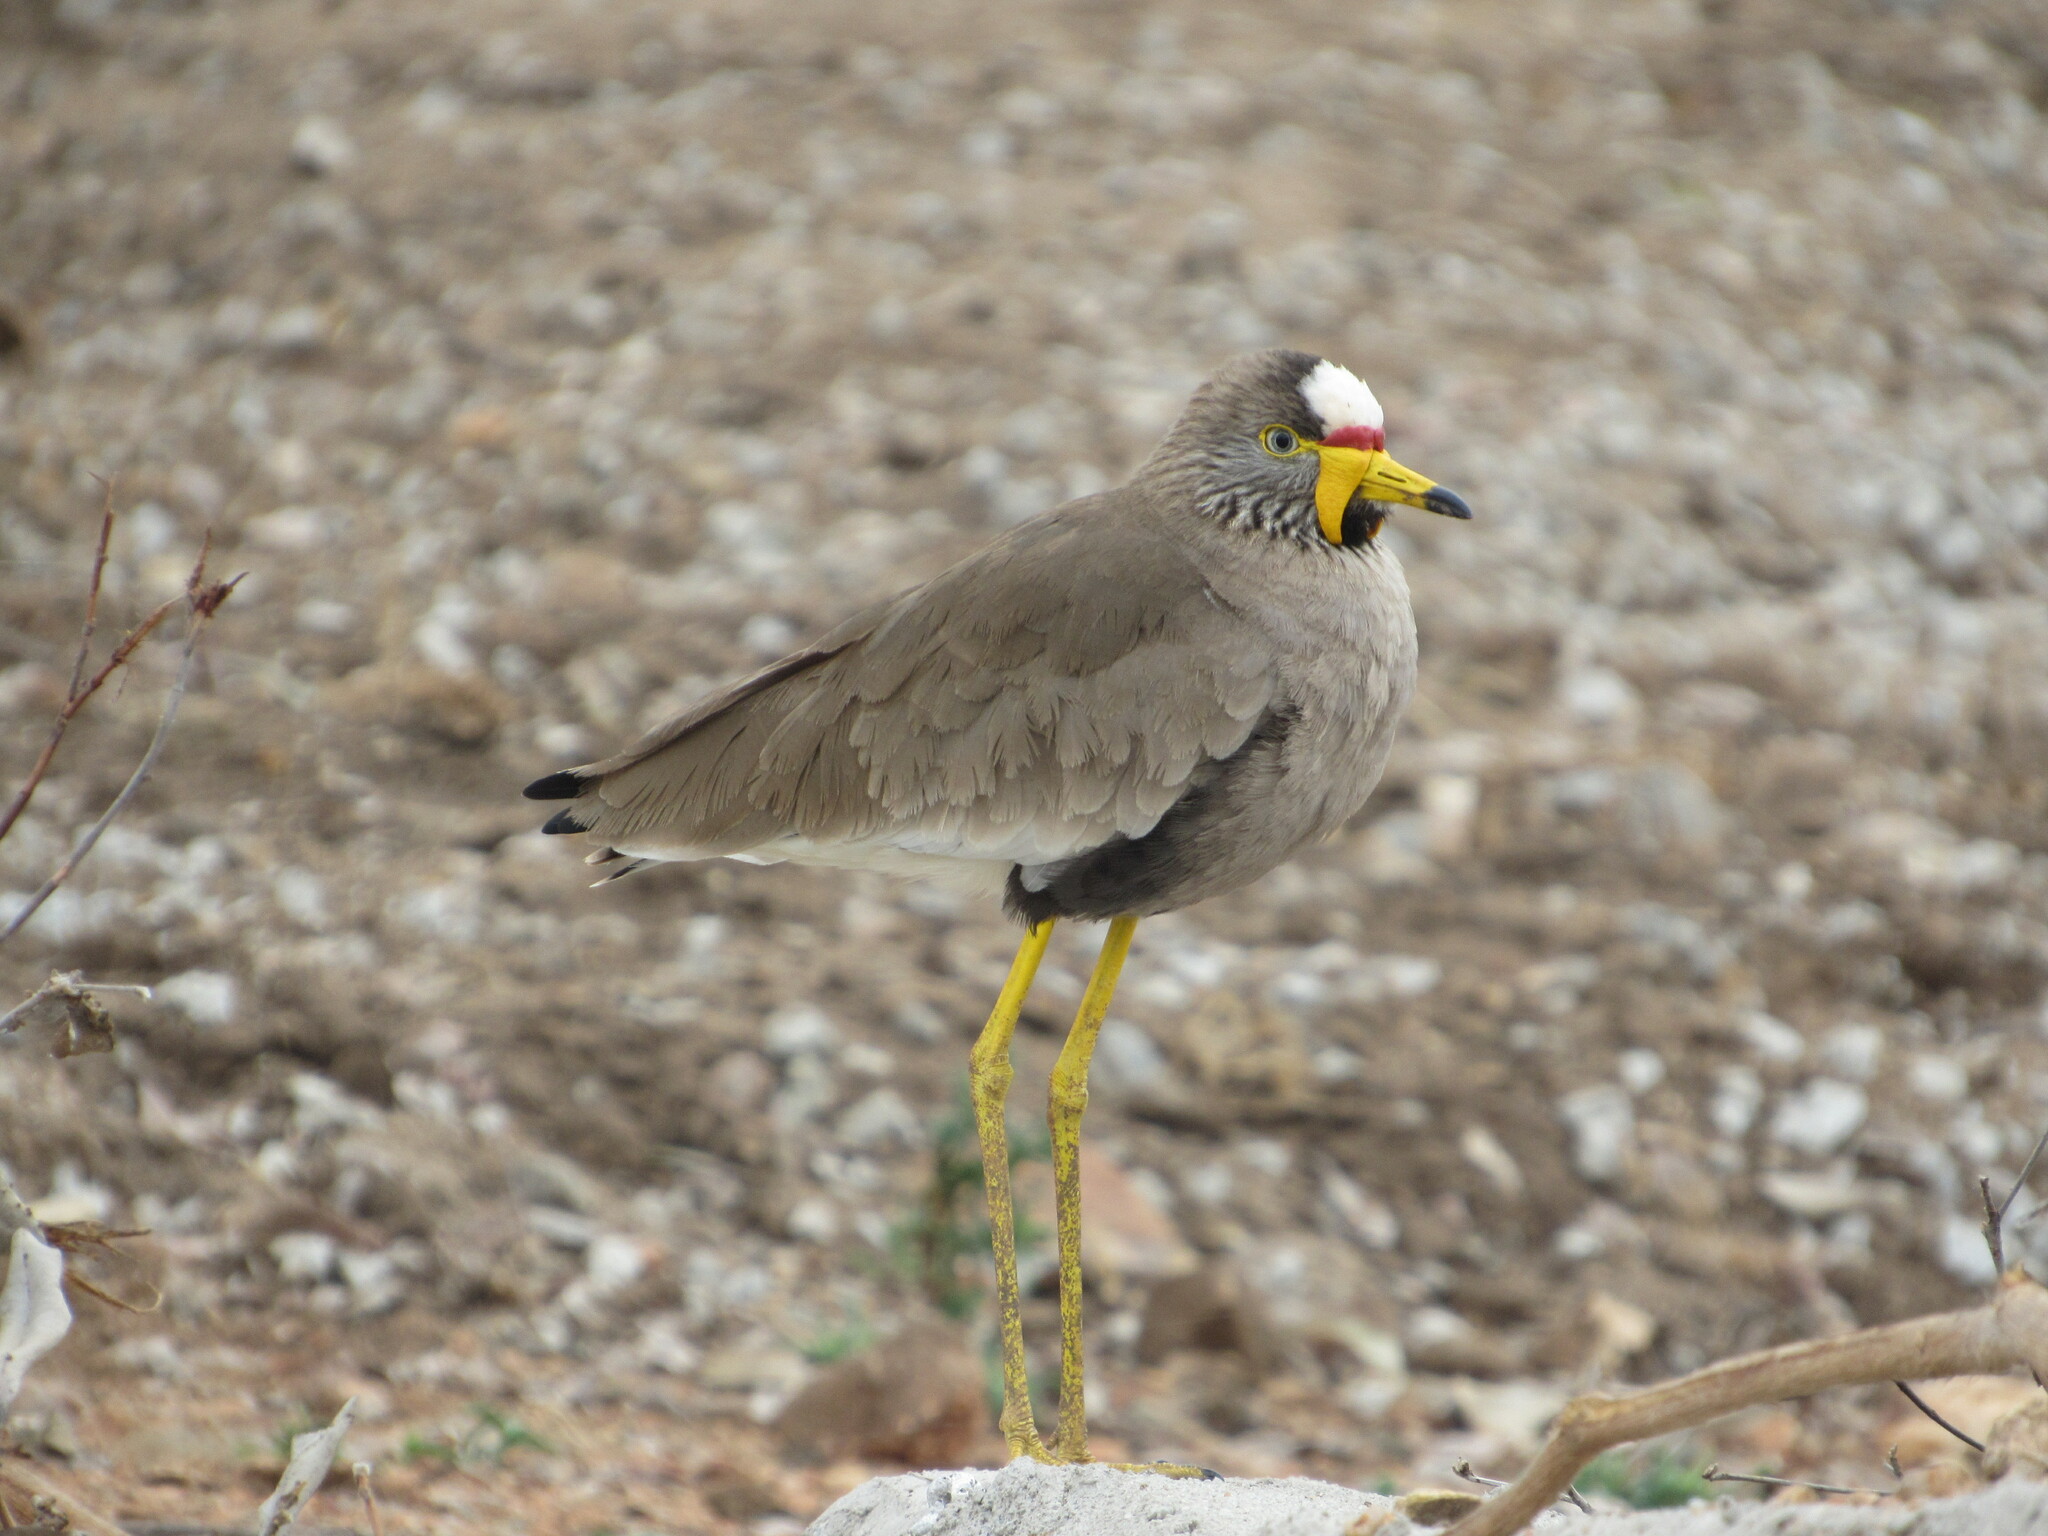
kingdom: Animalia
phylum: Chordata
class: Aves
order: Charadriiformes
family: Charadriidae
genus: Vanellus
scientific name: Vanellus senegallus
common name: African wattled lapwing
